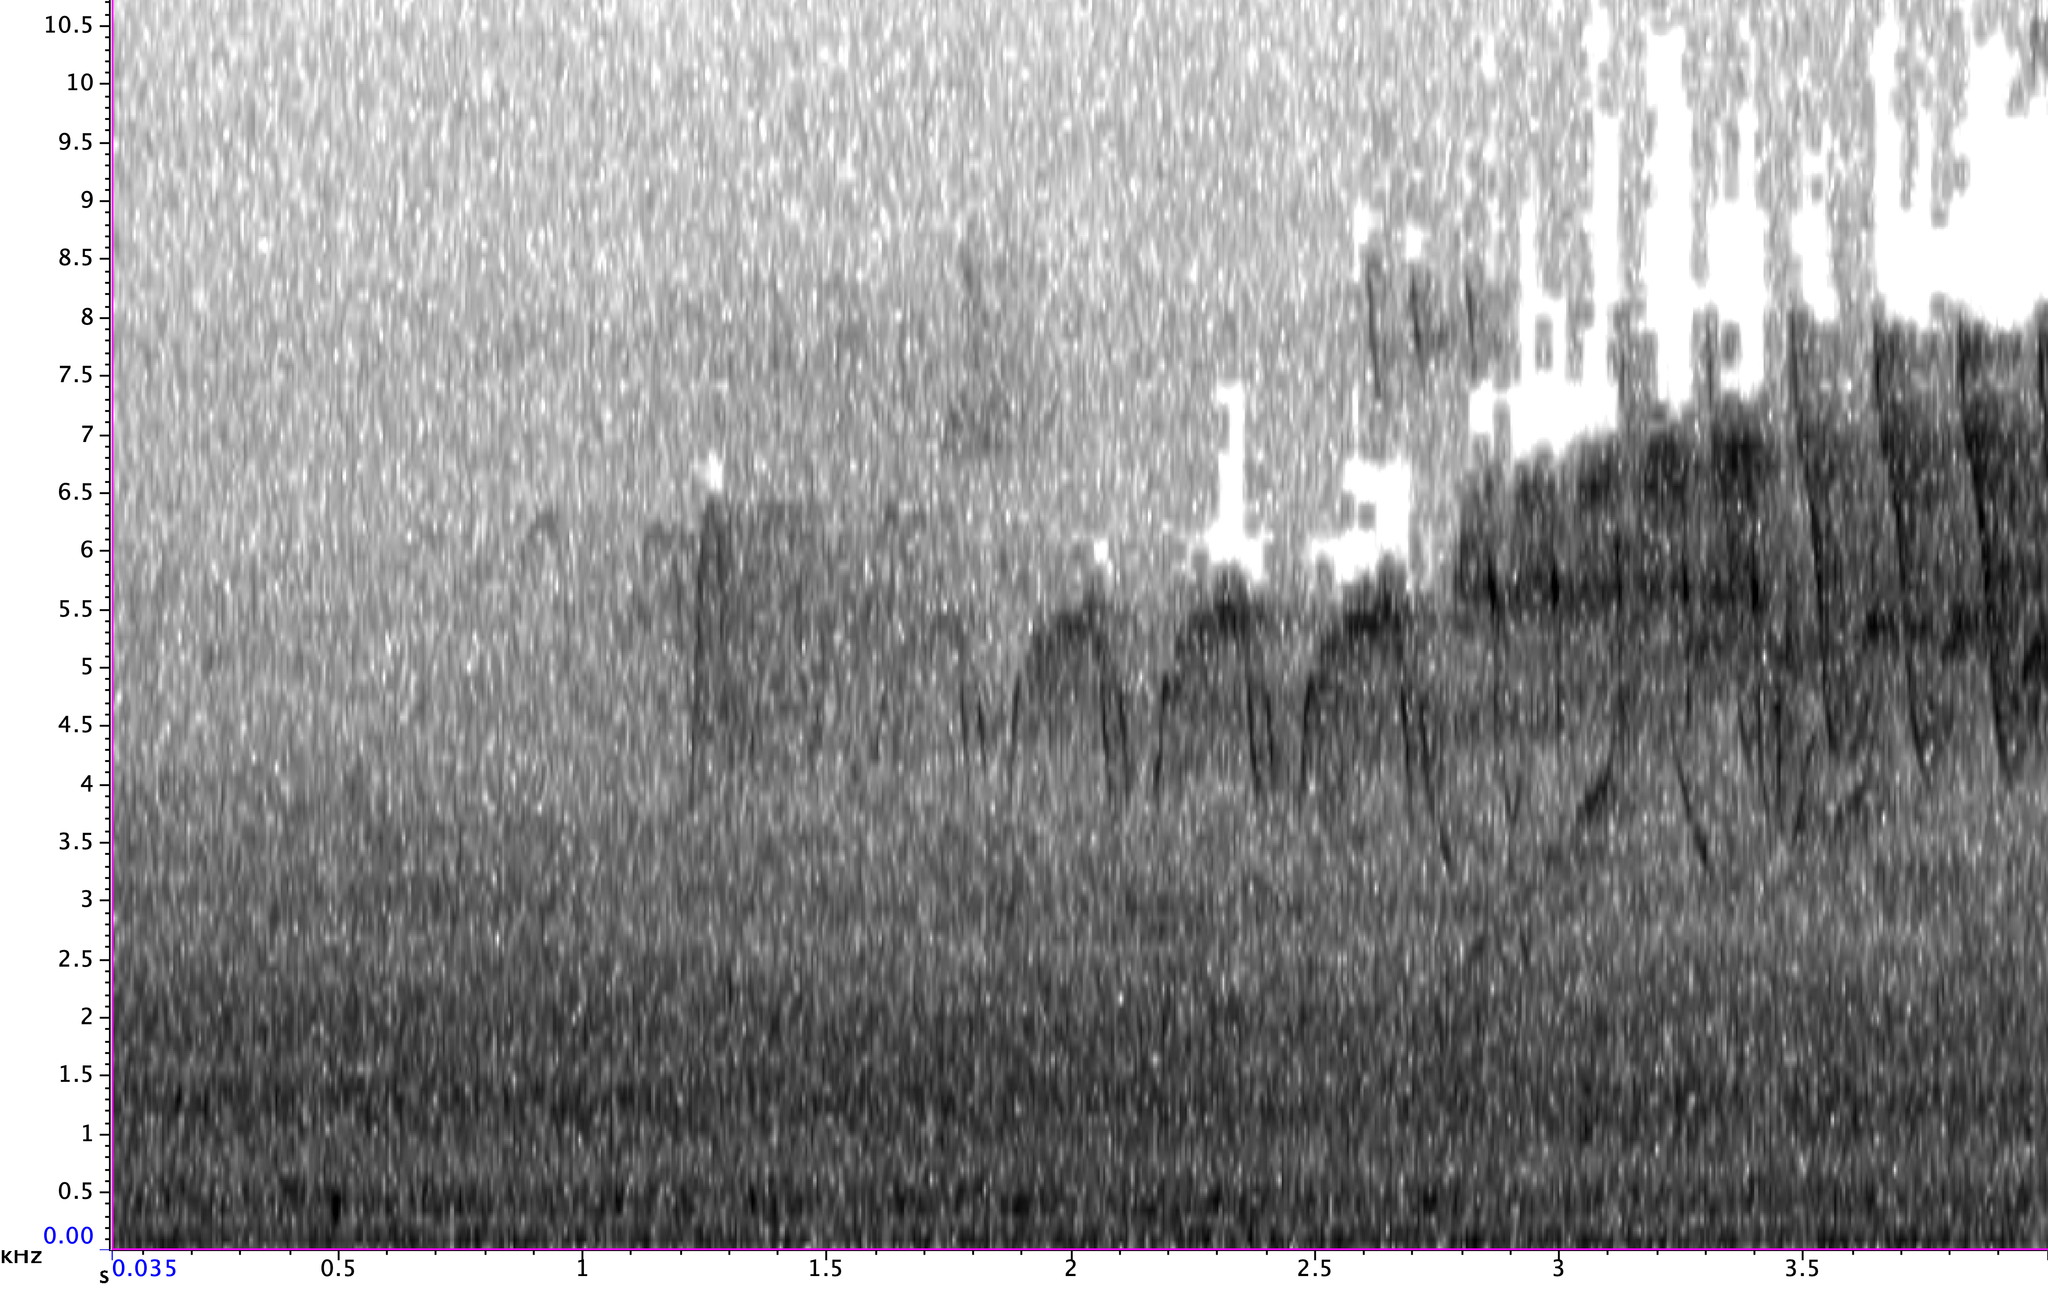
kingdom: Animalia
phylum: Chordata
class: Aves
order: Passeriformes
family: Parulidae
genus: Setophaga
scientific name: Setophaga americana
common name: Northern parula
